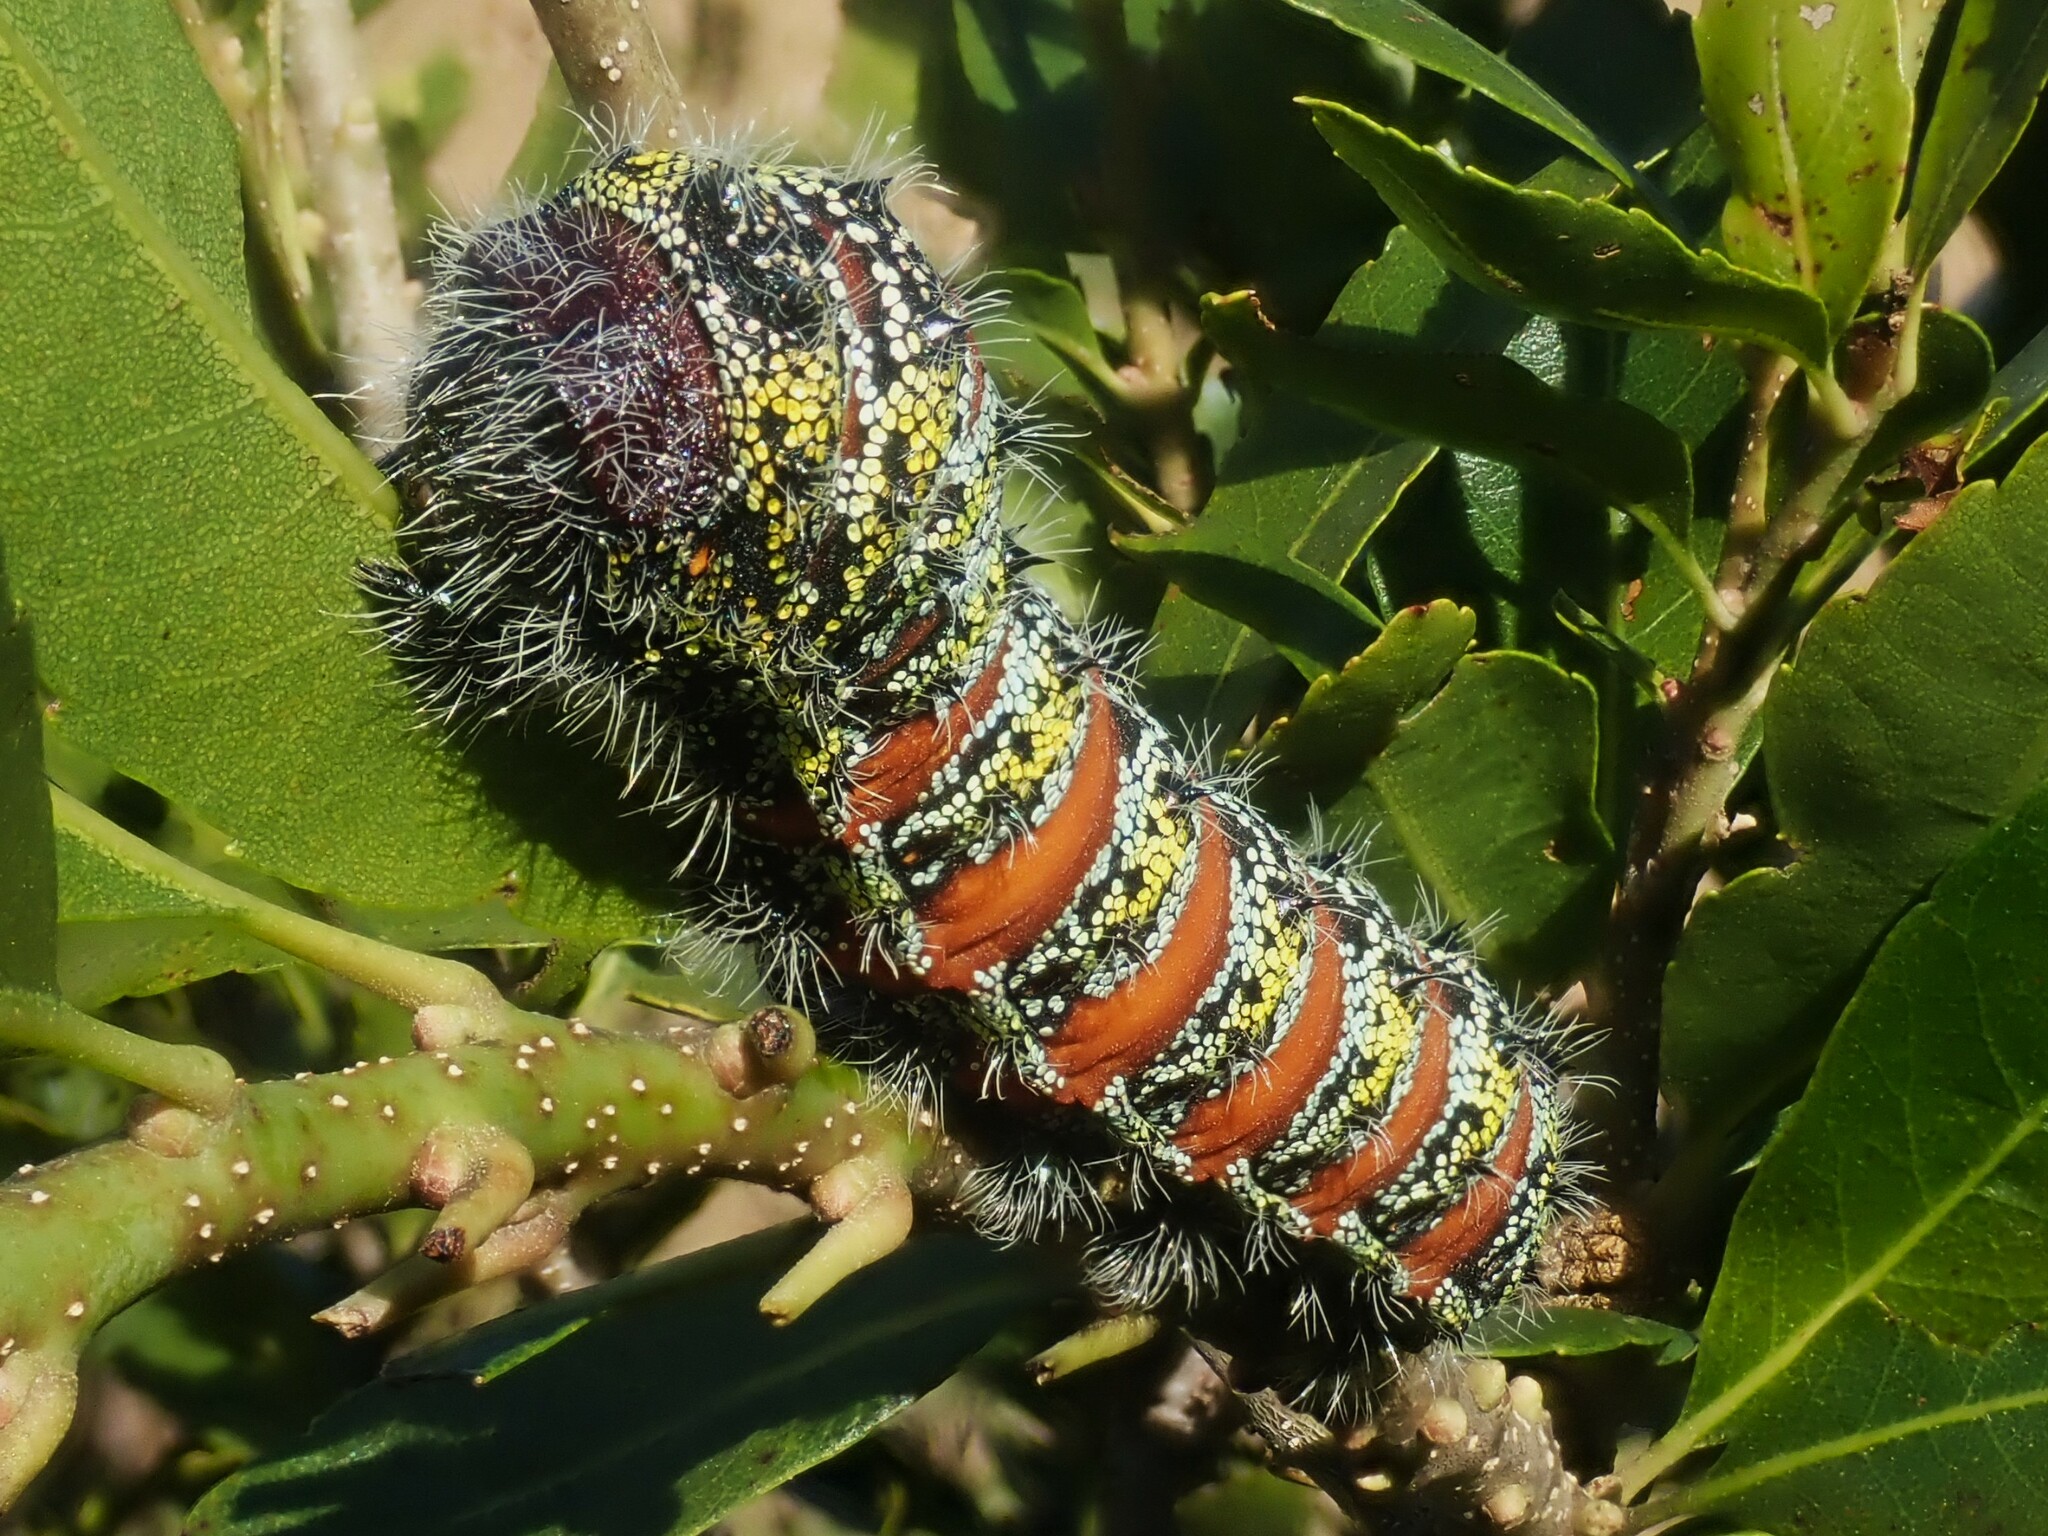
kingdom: Animalia
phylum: Arthropoda
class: Insecta
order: Lepidoptera
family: Saturniidae
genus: Nudaurelia
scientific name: Nudaurelia bubo
